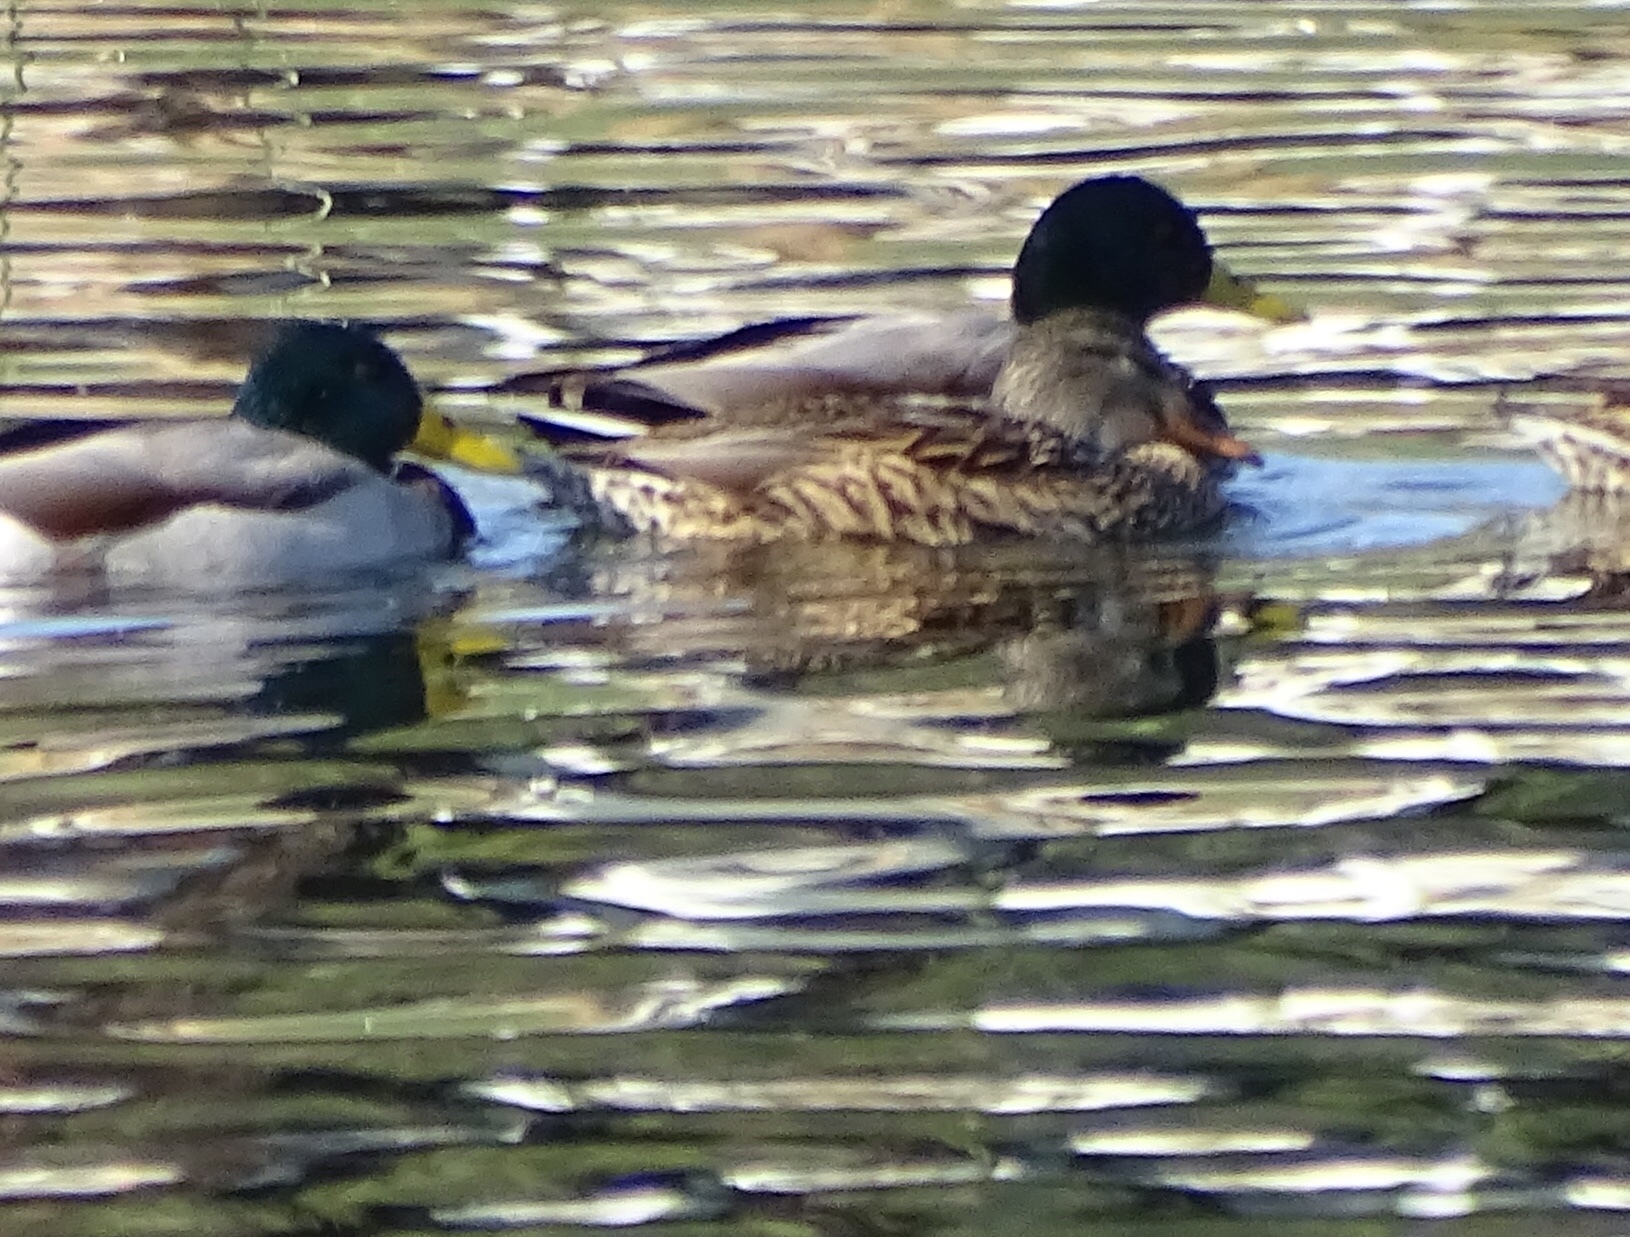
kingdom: Animalia
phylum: Chordata
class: Aves
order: Anseriformes
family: Anatidae
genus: Anas
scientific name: Anas platyrhynchos
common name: Mallard
